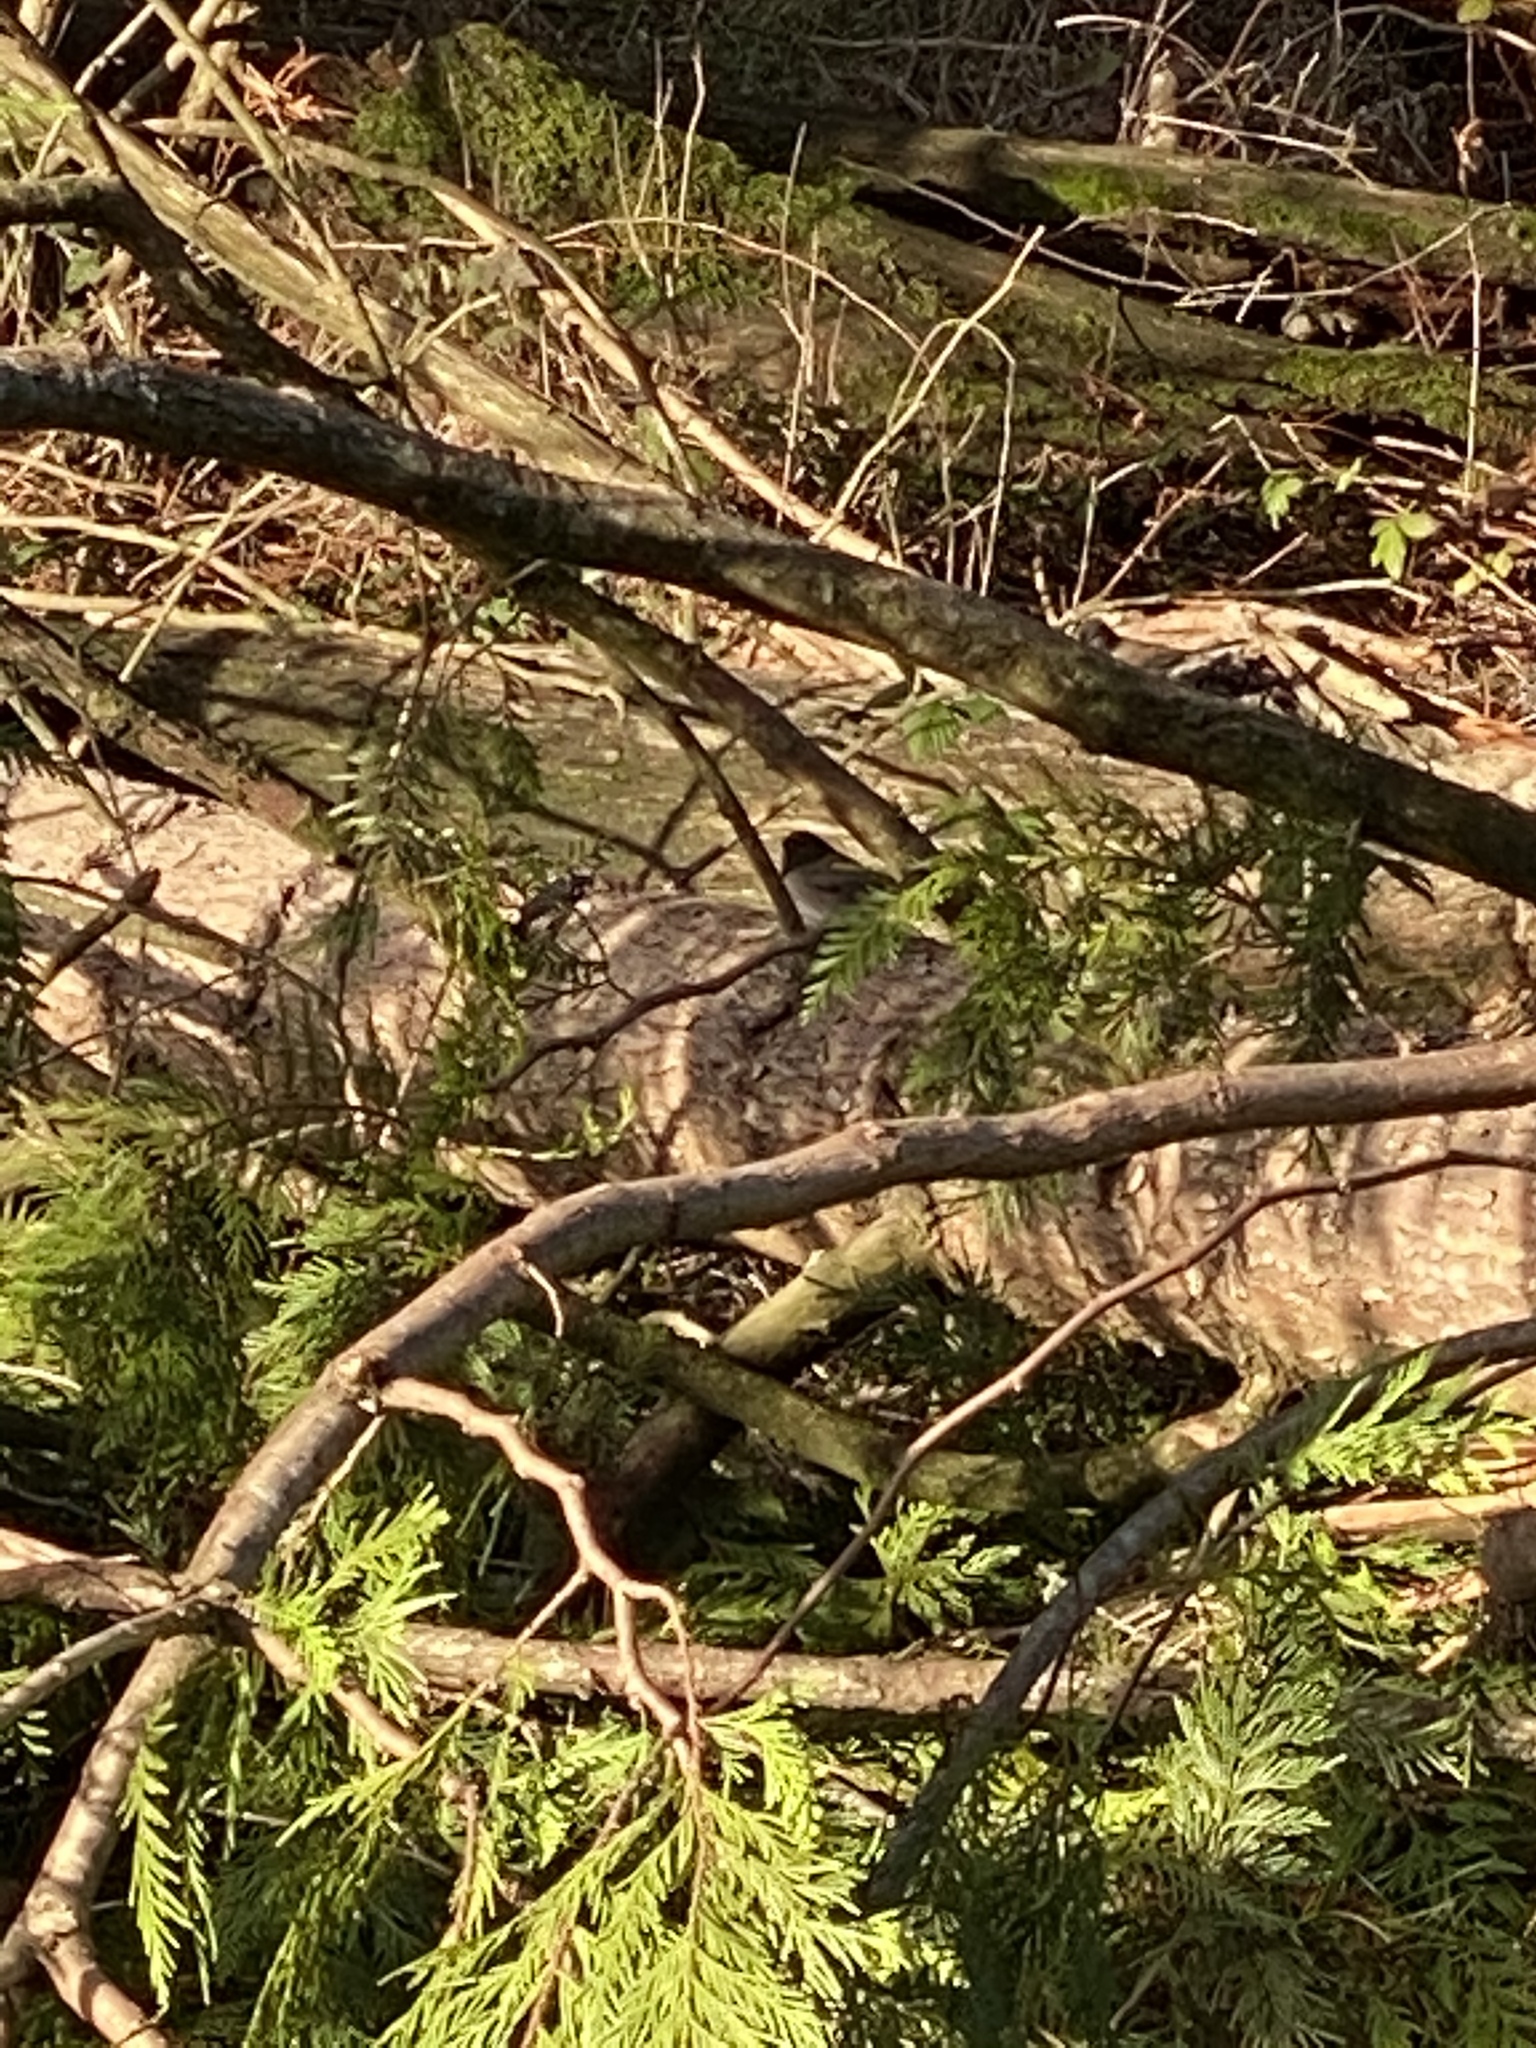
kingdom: Animalia
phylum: Chordata
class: Aves
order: Passeriformes
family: Passerellidae
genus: Junco
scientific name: Junco hyemalis
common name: Dark-eyed junco
